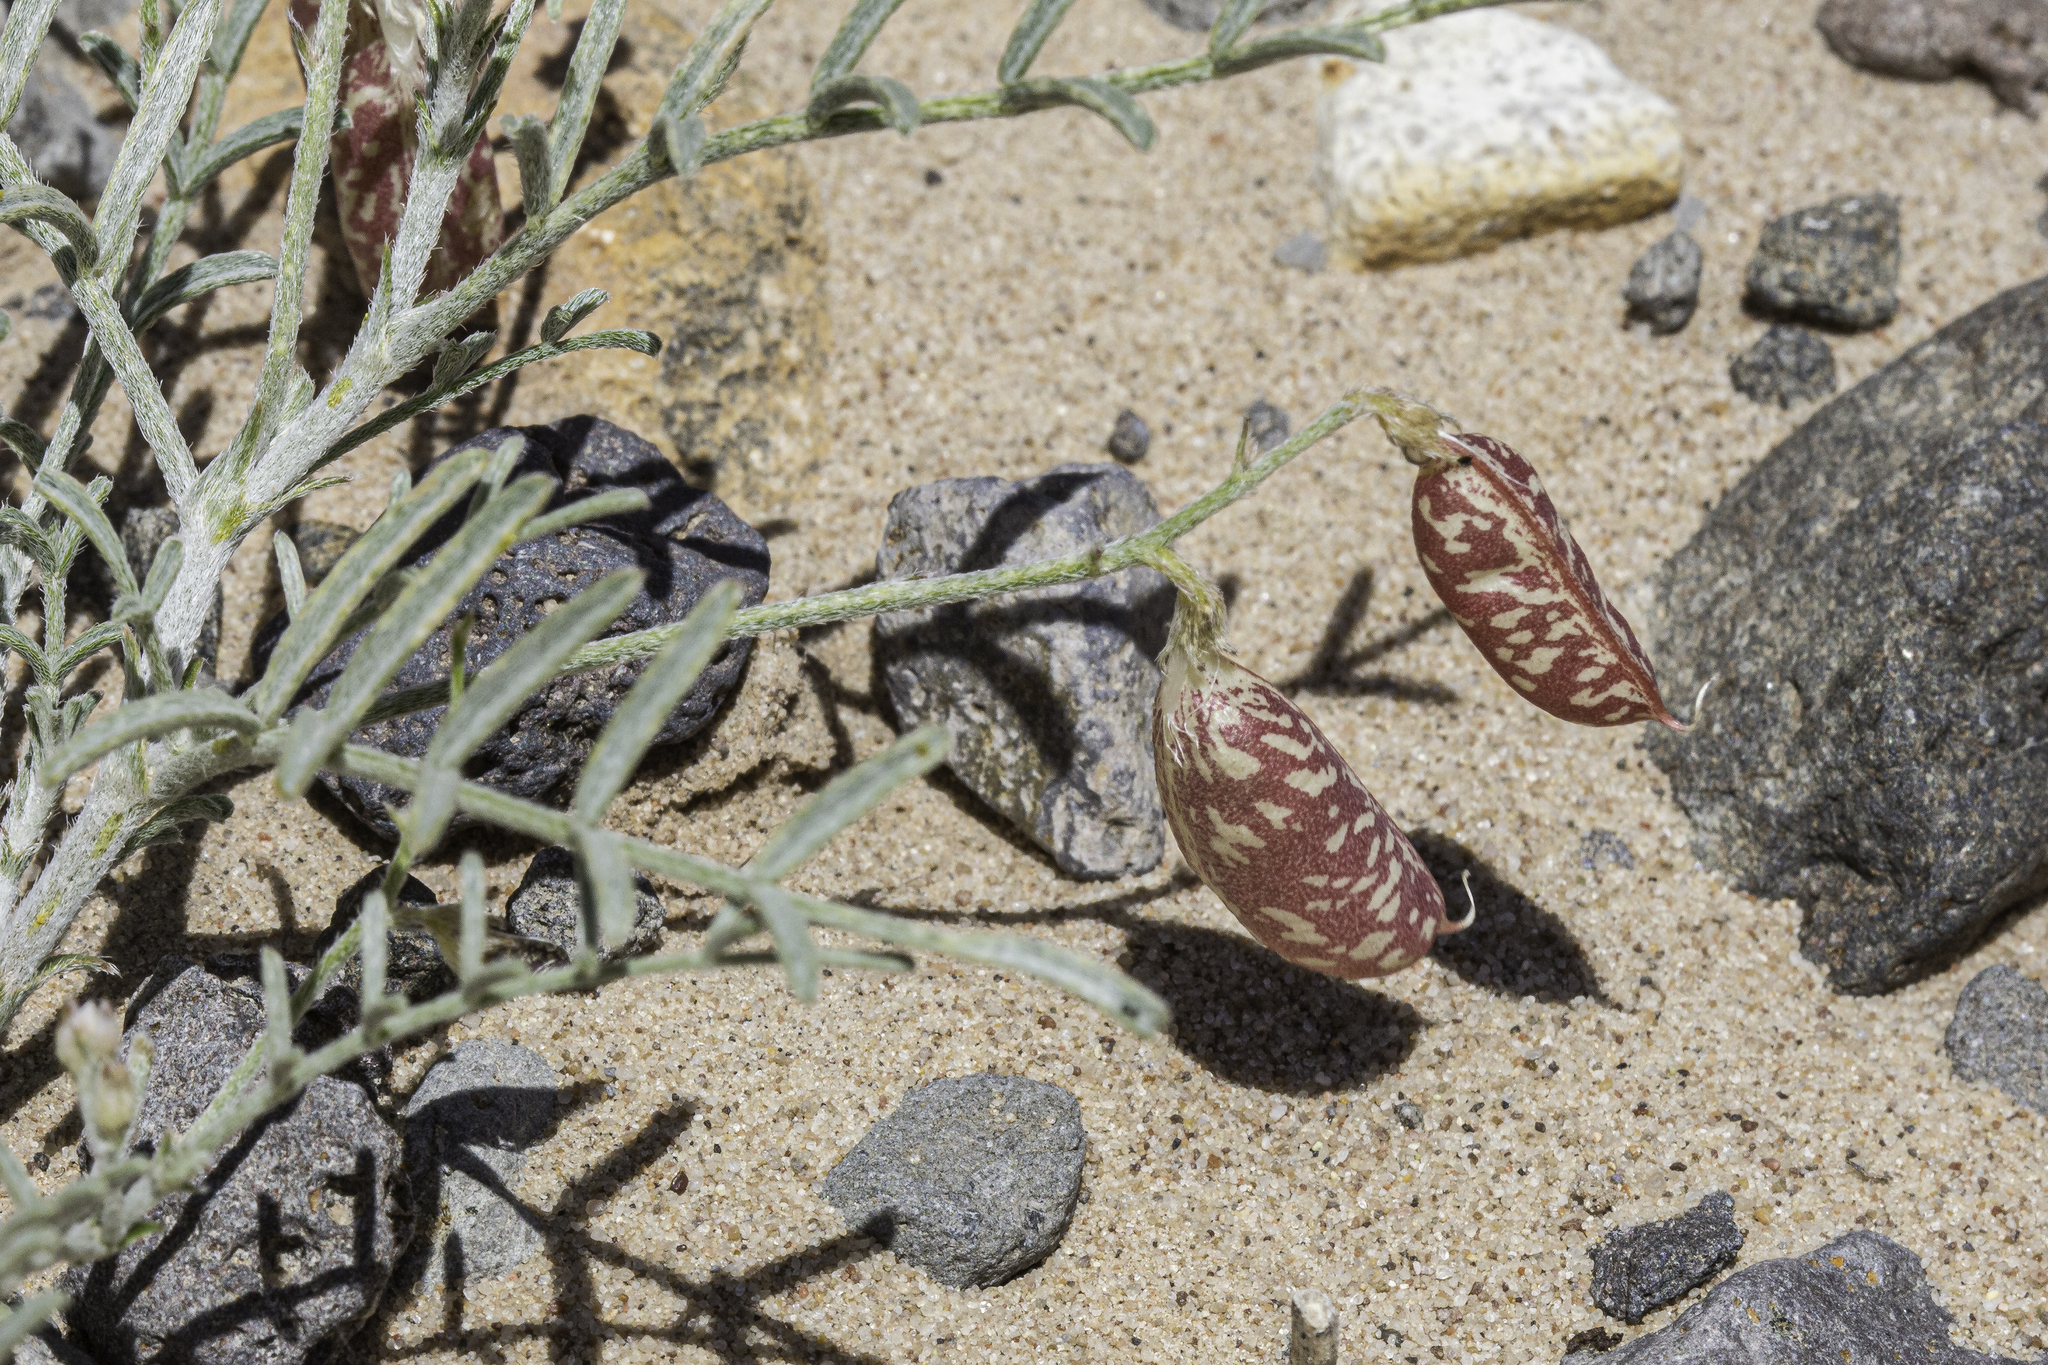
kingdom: Plantae
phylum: Tracheophyta
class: Magnoliopsida
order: Fabales
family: Fabaceae
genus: Astragalus
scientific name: Astragalus ceramicus
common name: Painted milk-vetch
